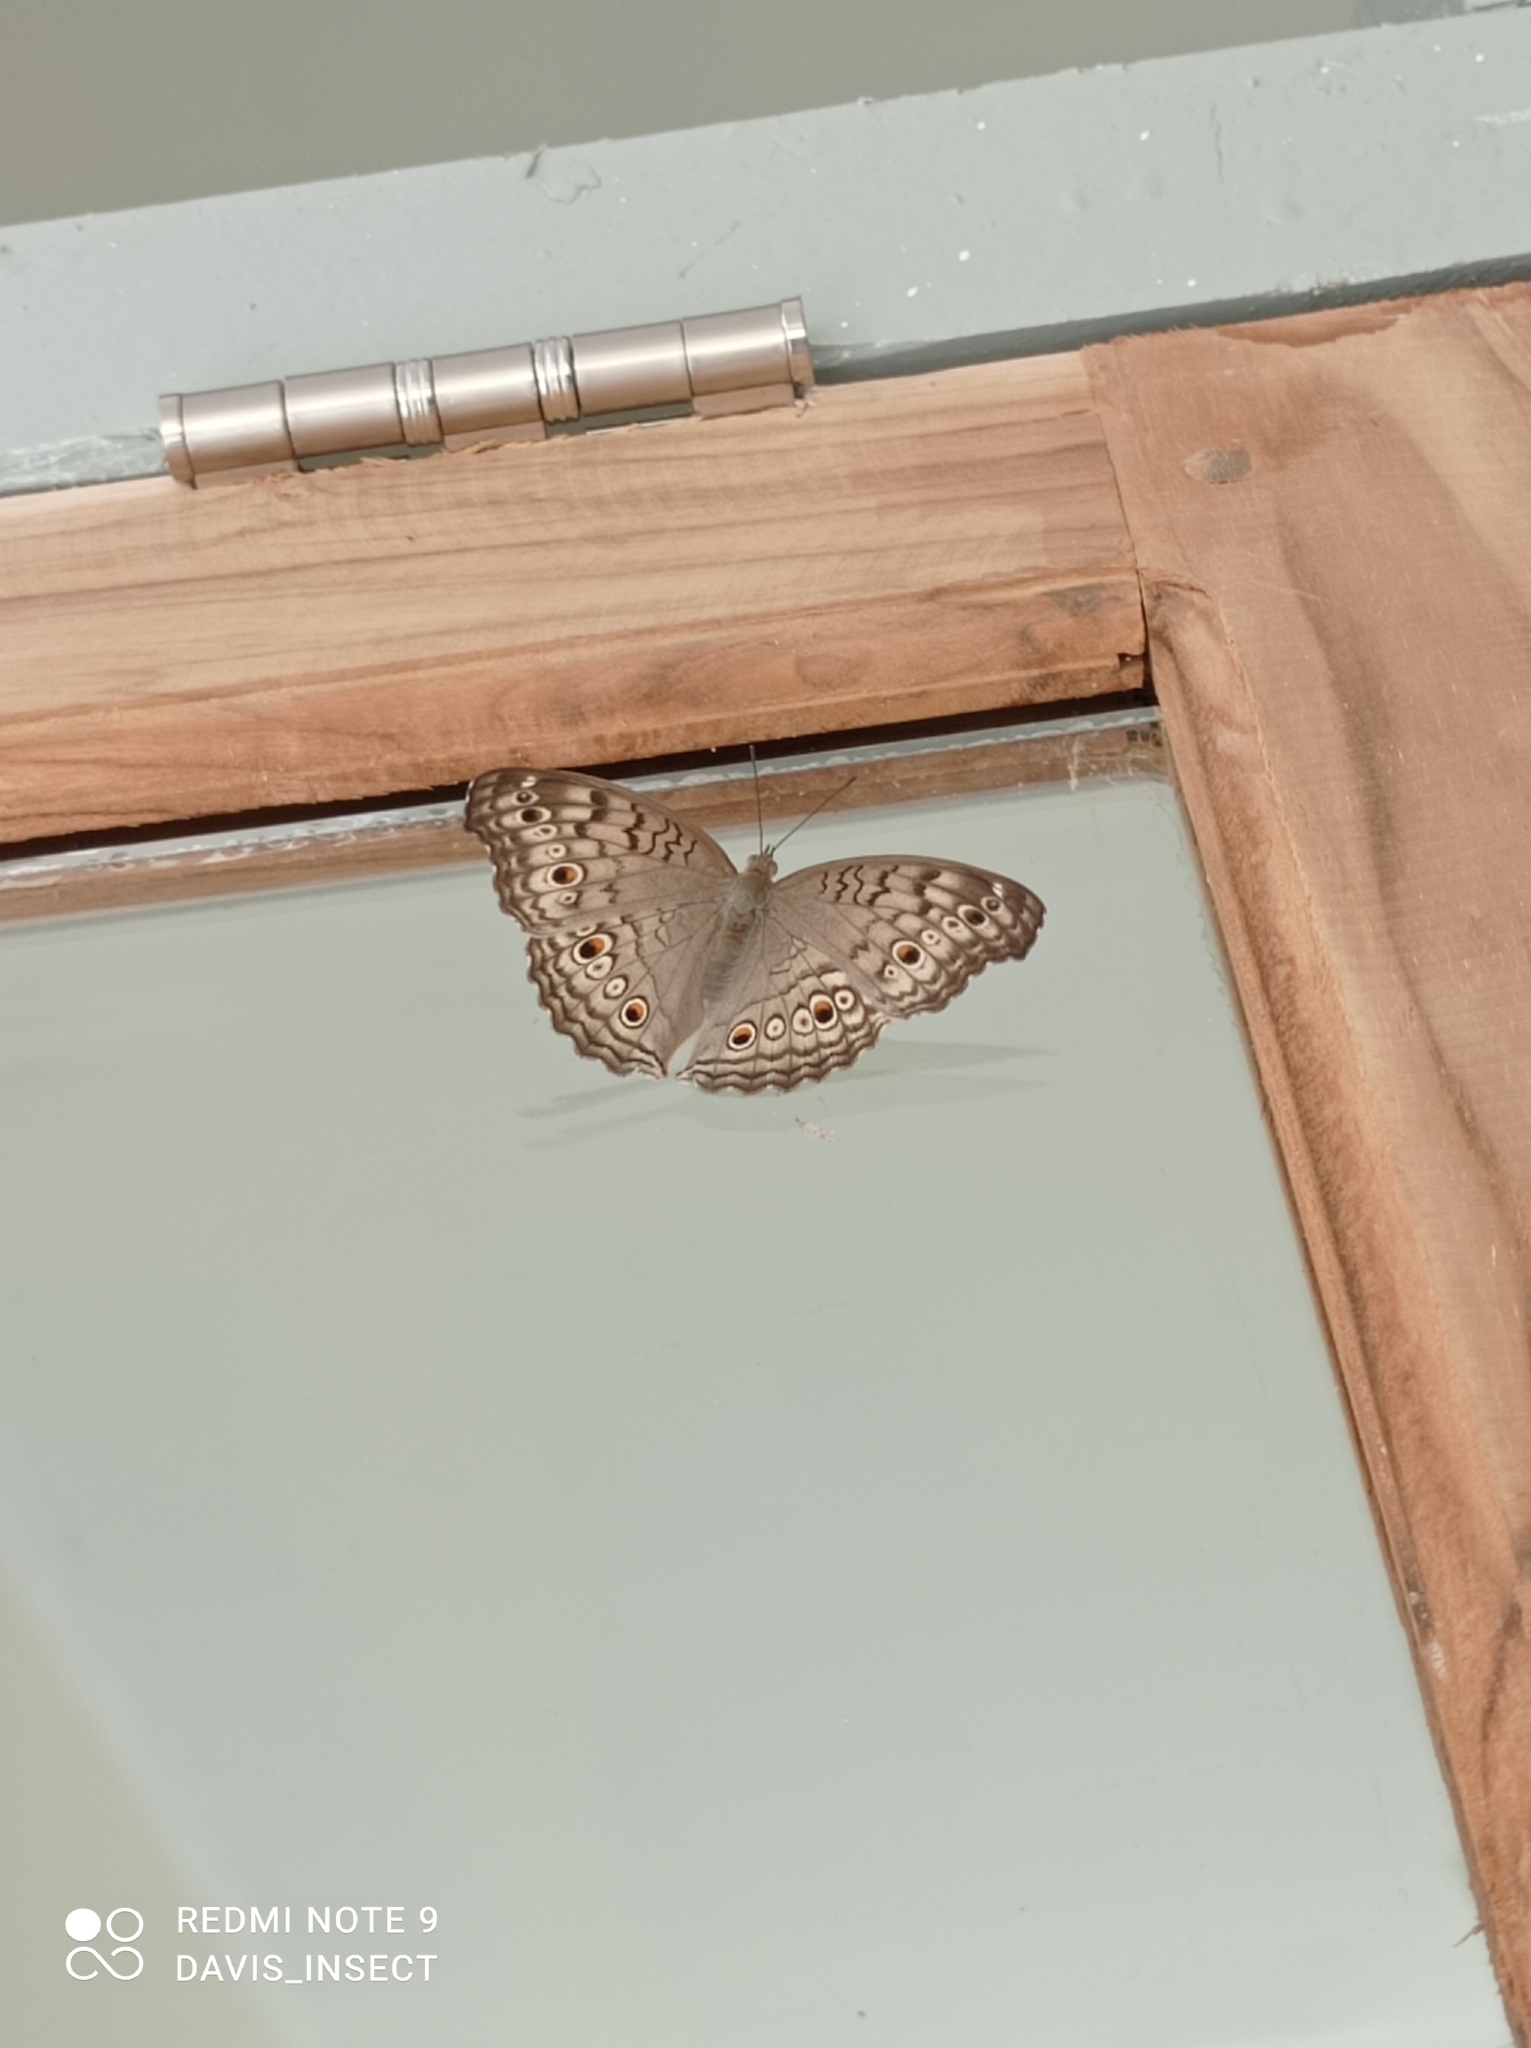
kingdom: Animalia
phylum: Arthropoda
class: Insecta
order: Lepidoptera
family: Nymphalidae
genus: Junonia
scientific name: Junonia atlites
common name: Grey pansy
